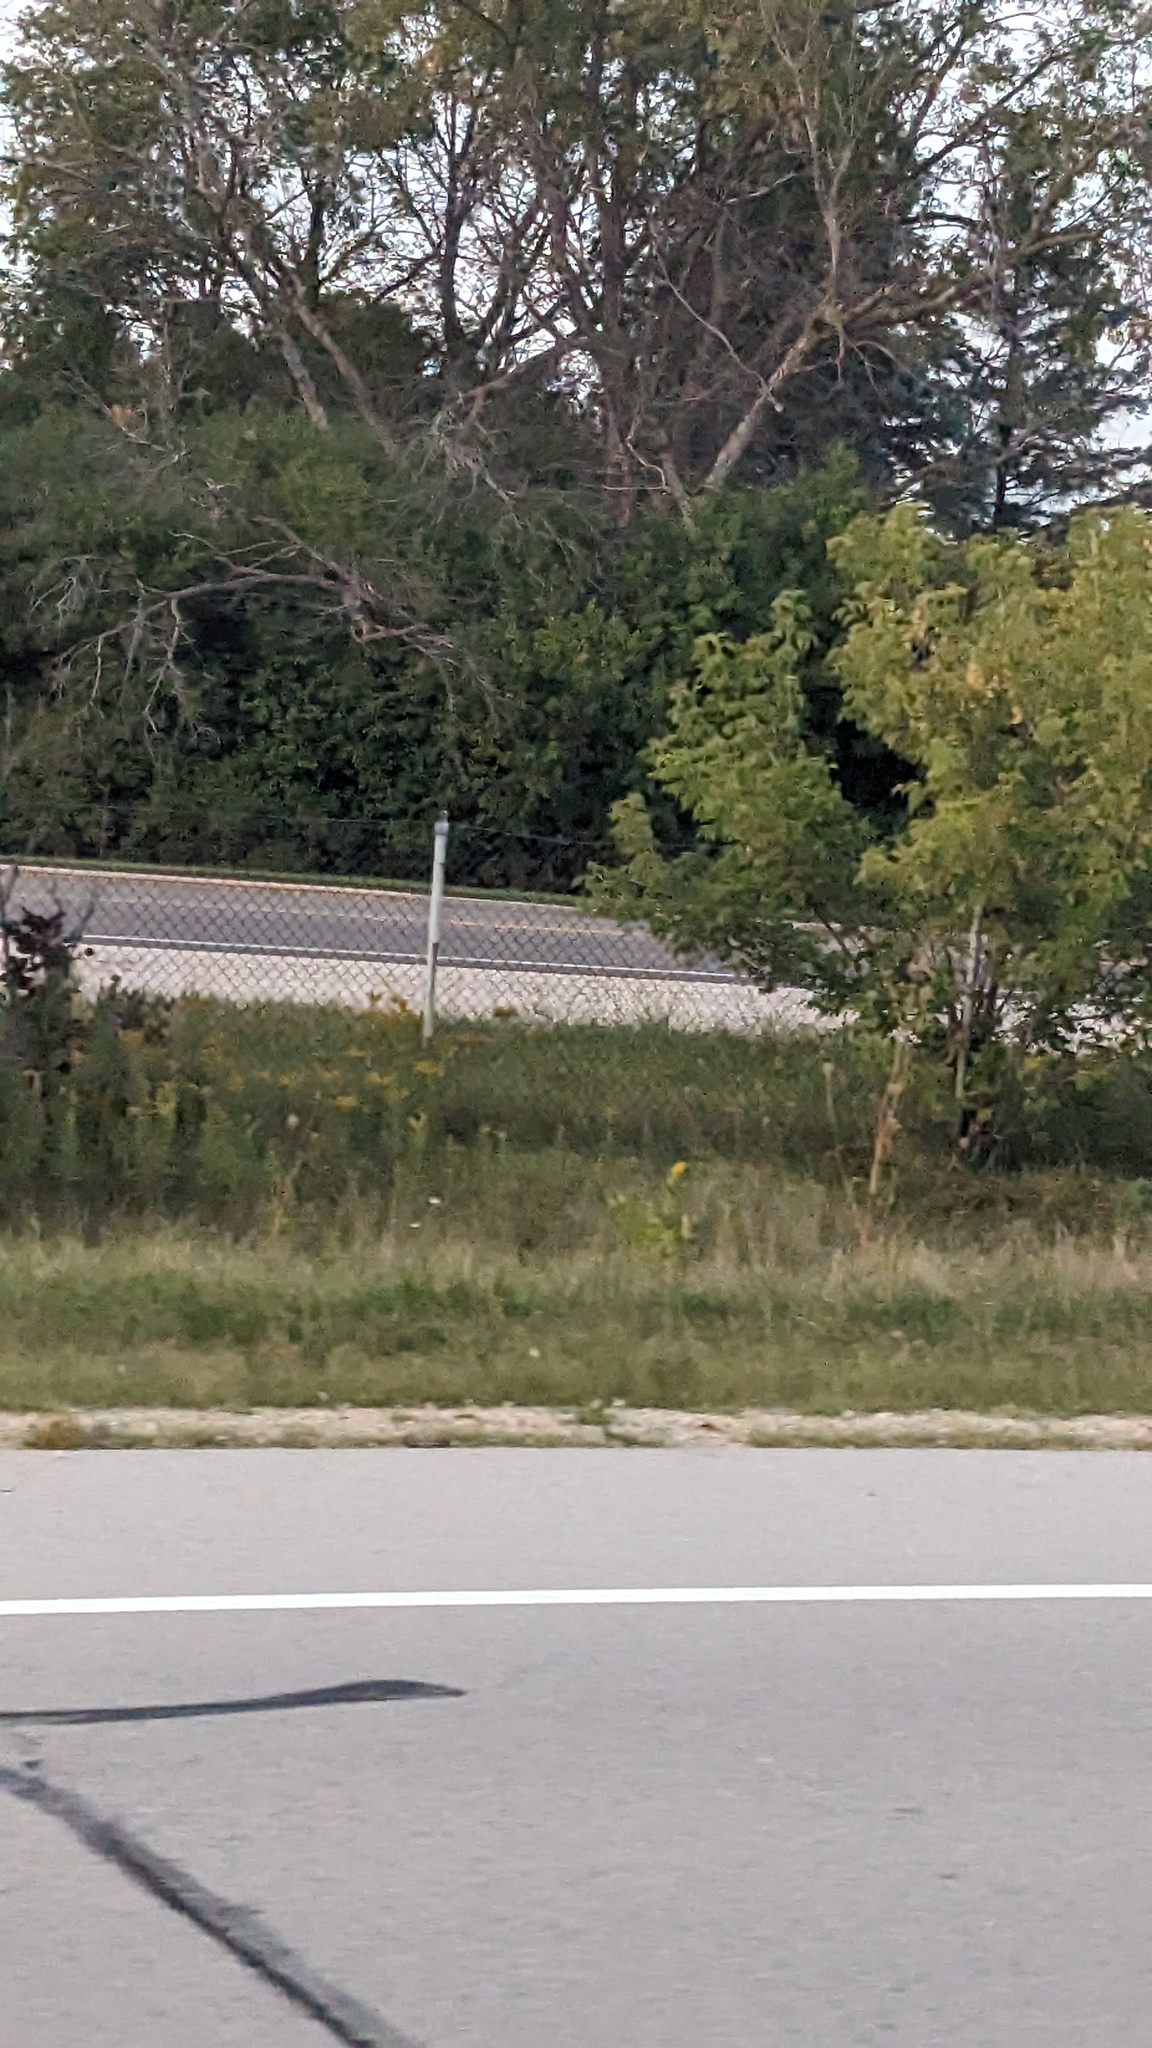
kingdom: Plantae
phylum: Tracheophyta
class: Magnoliopsida
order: Sapindales
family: Sapindaceae
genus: Acer
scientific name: Acer negundo
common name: Ashleaf maple
